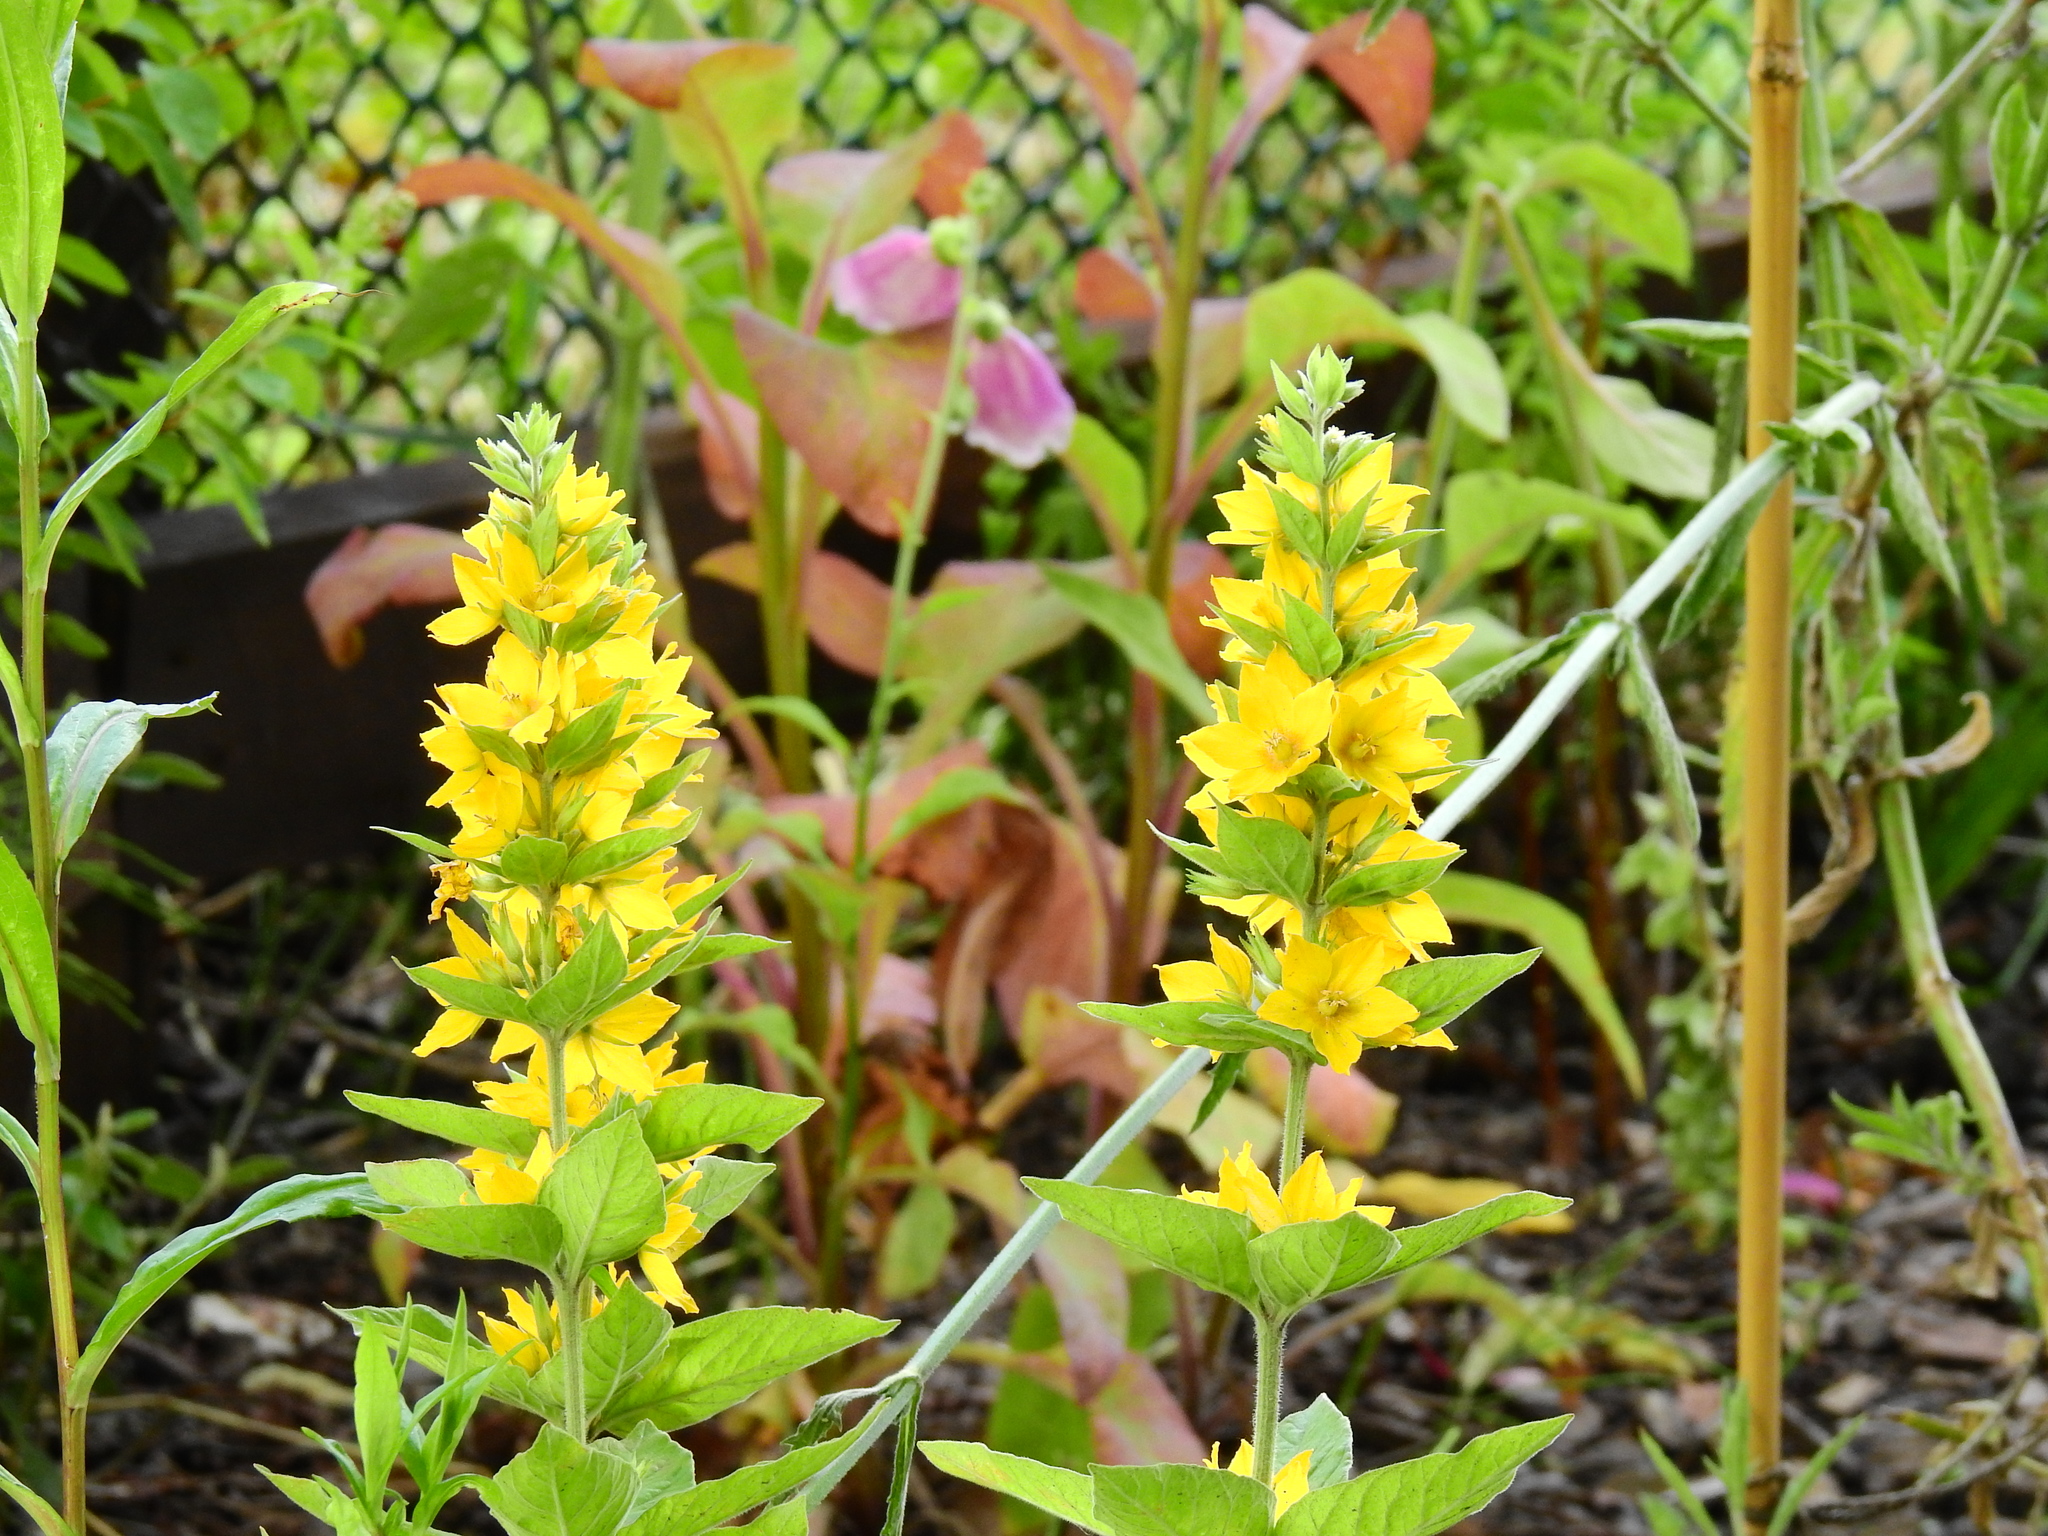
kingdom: Plantae
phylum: Tracheophyta
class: Magnoliopsida
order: Ericales
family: Primulaceae
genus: Lysimachia
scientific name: Lysimachia punctata
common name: Dotted loosestrife
